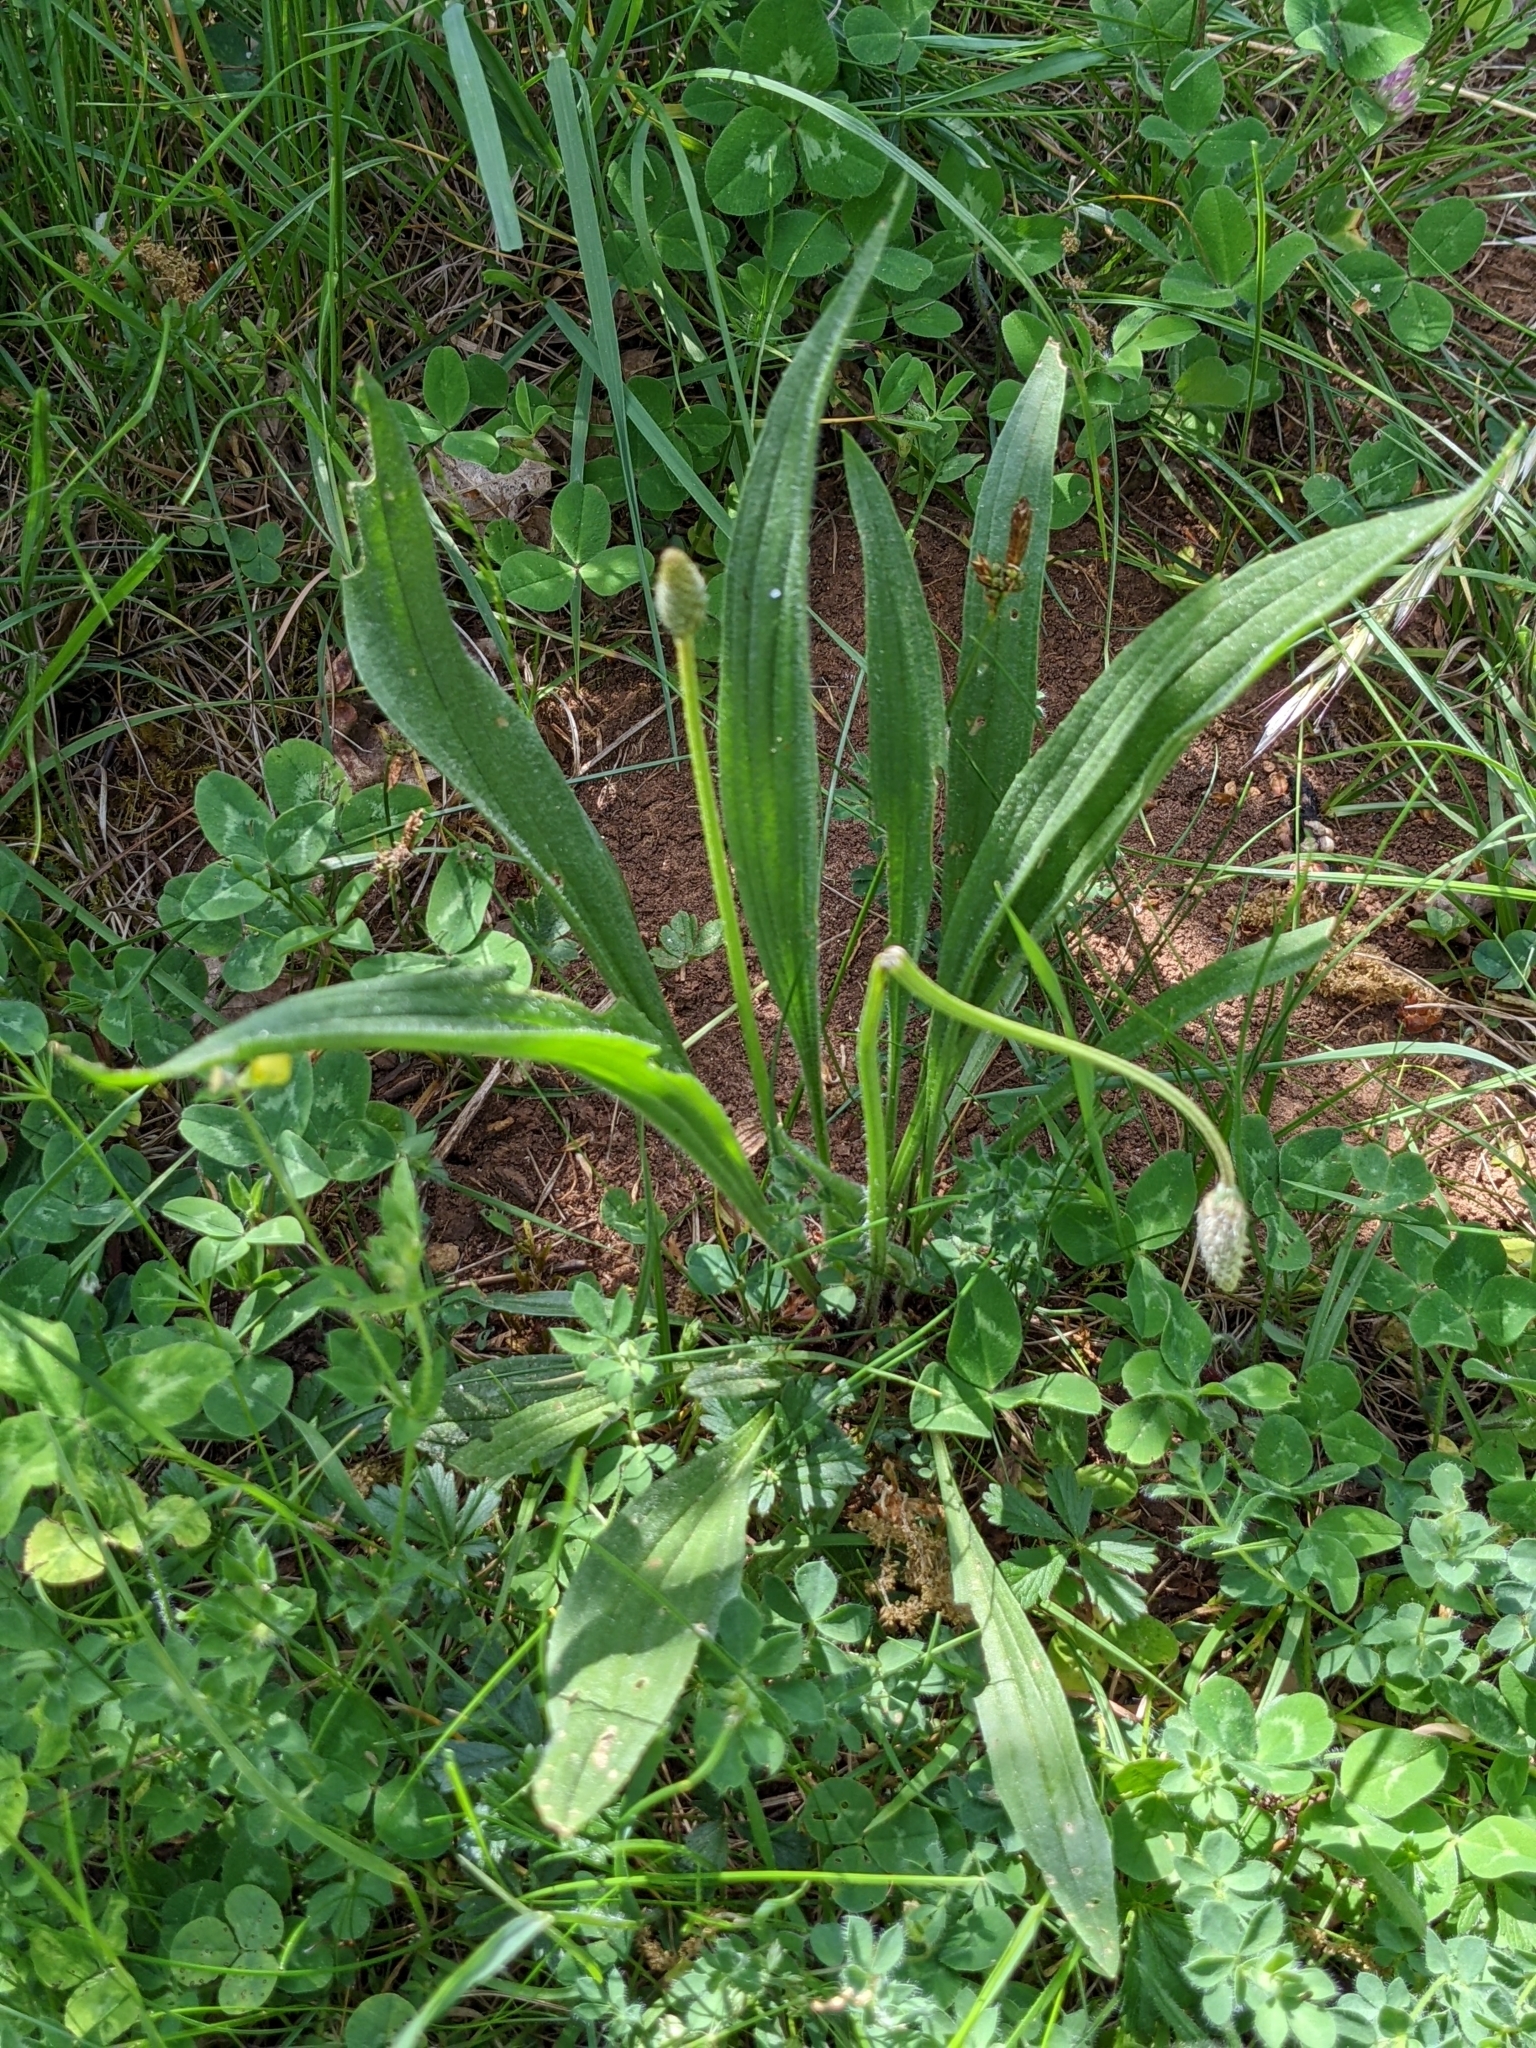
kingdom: Plantae
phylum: Tracheophyta
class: Magnoliopsida
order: Lamiales
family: Plantaginaceae
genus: Plantago
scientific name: Plantago lanceolata
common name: Ribwort plantain
